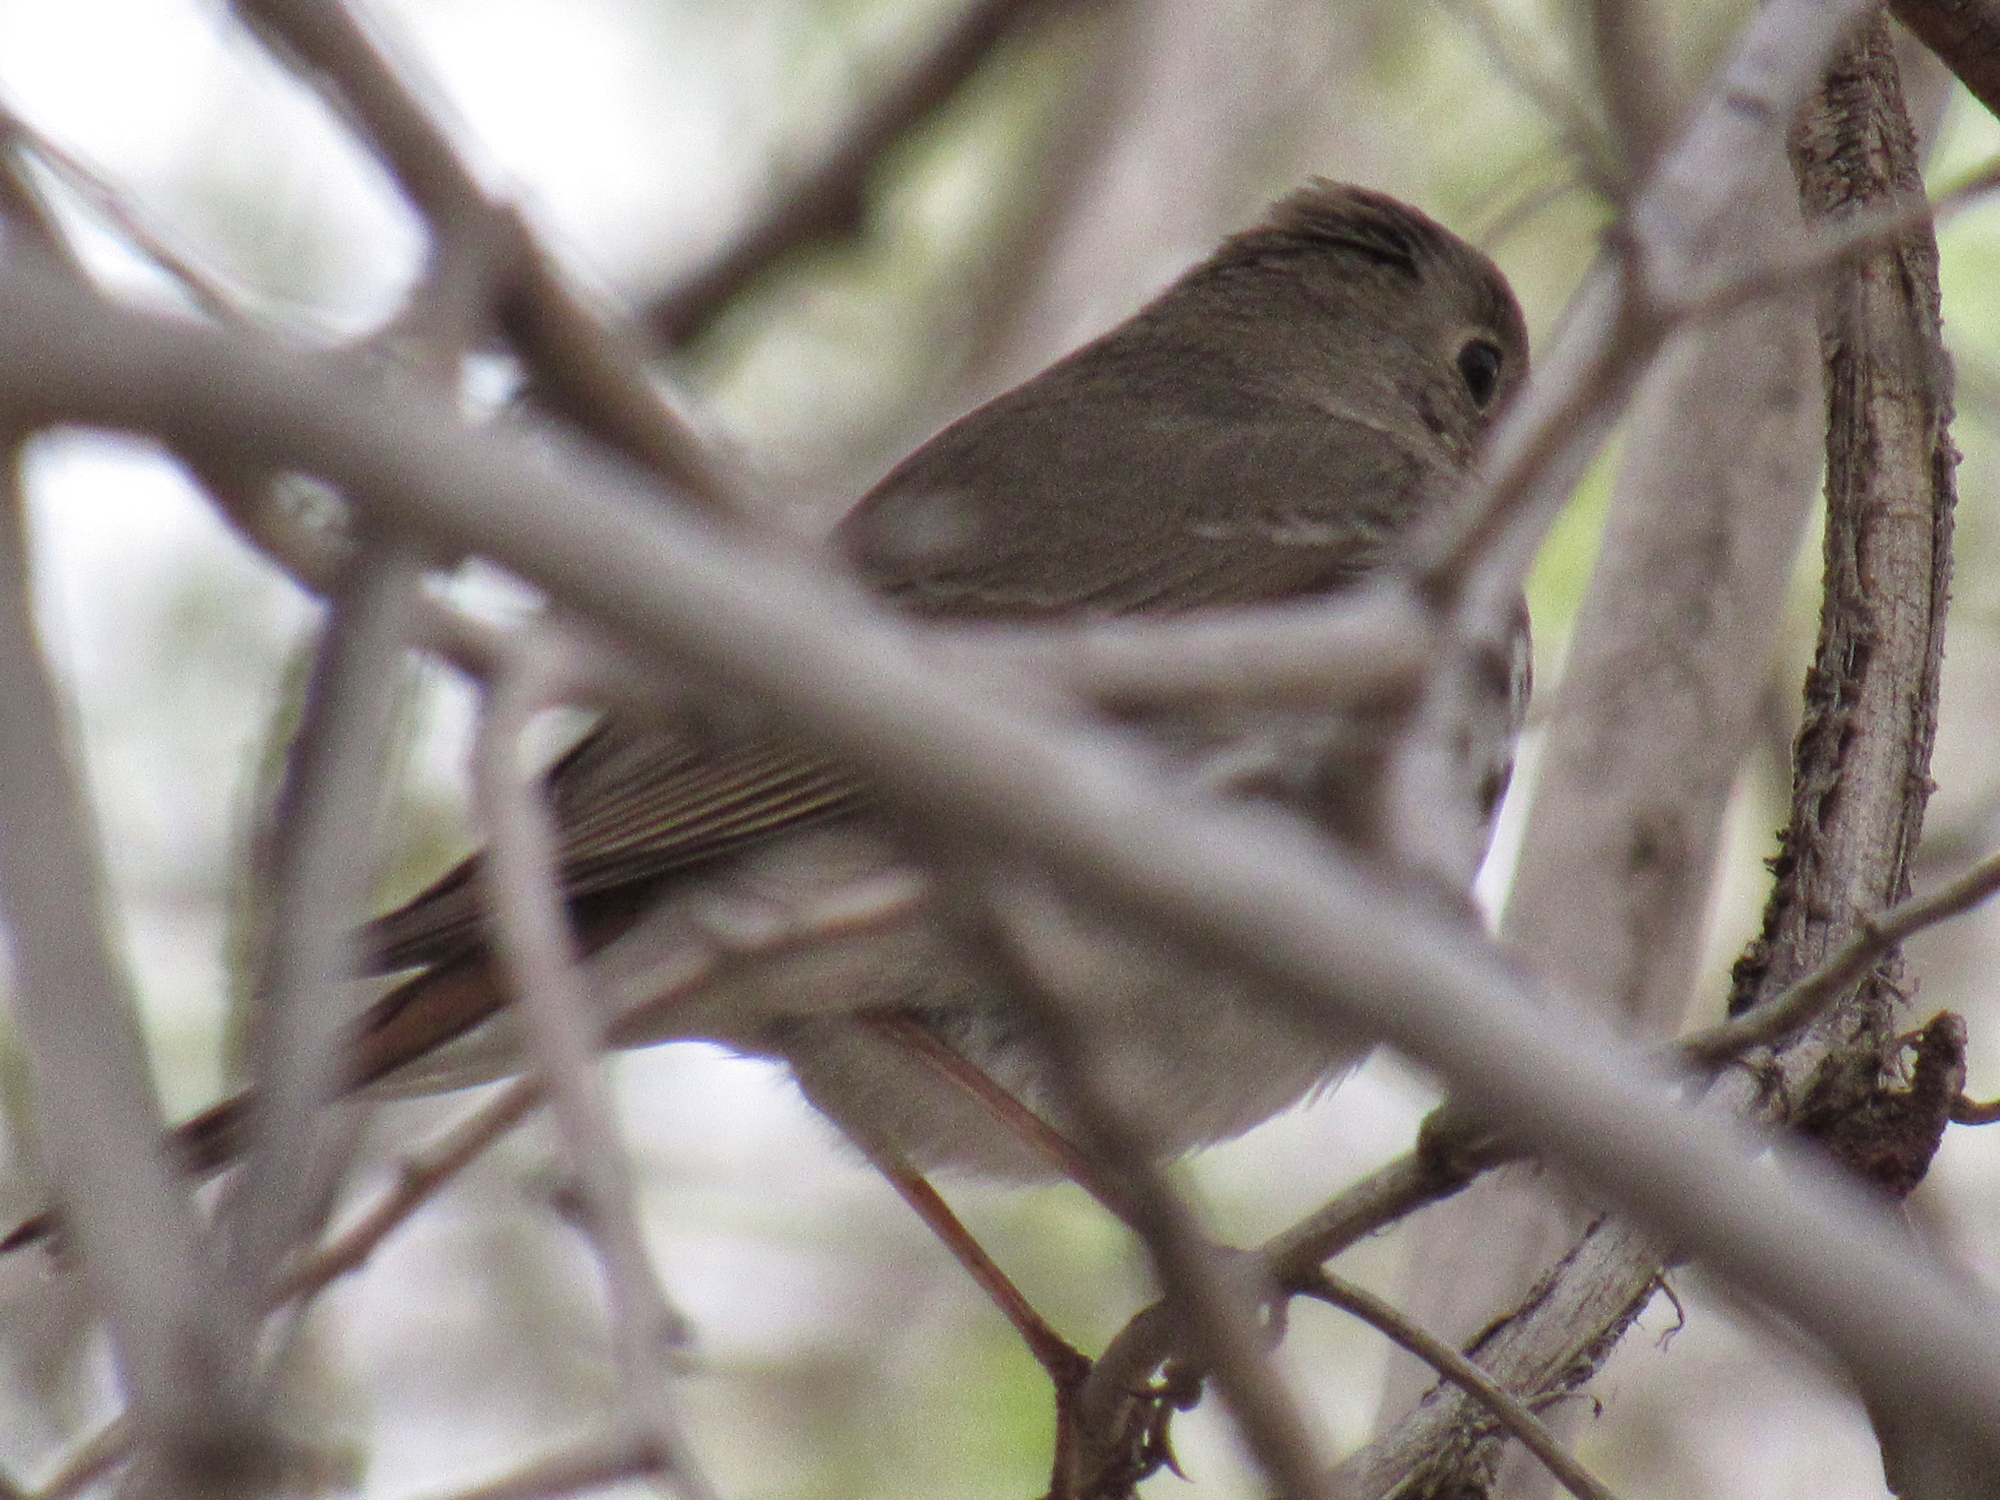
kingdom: Animalia
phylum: Chordata
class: Aves
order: Passeriformes
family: Turdidae
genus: Catharus
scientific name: Catharus guttatus
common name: Hermit thrush
